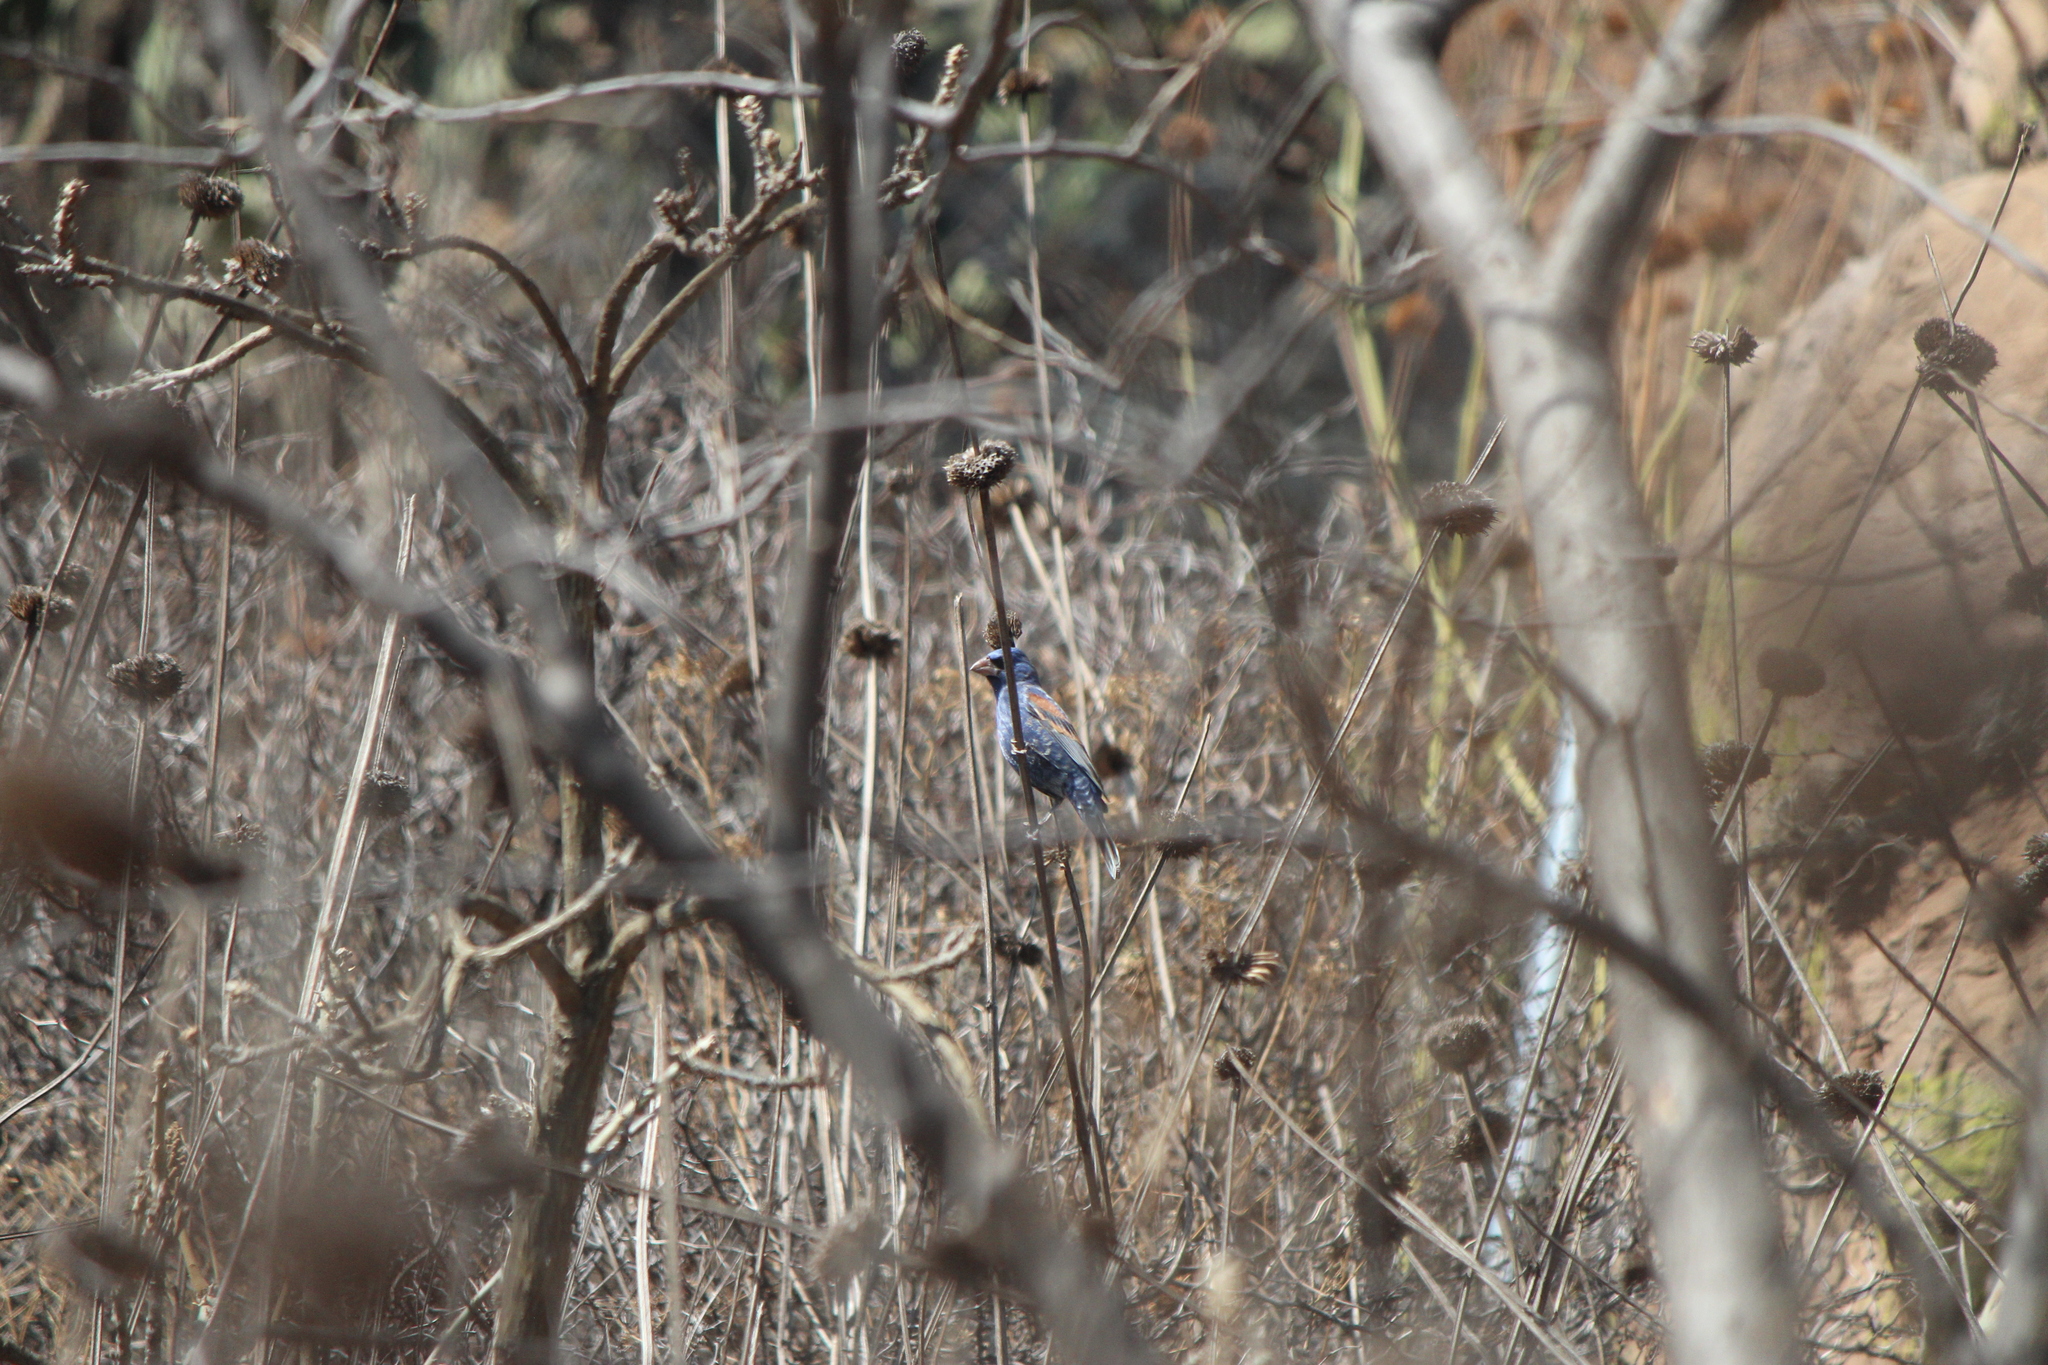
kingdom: Animalia
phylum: Chordata
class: Aves
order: Passeriformes
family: Cardinalidae
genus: Passerina
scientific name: Passerina caerulea
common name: Blue grosbeak
